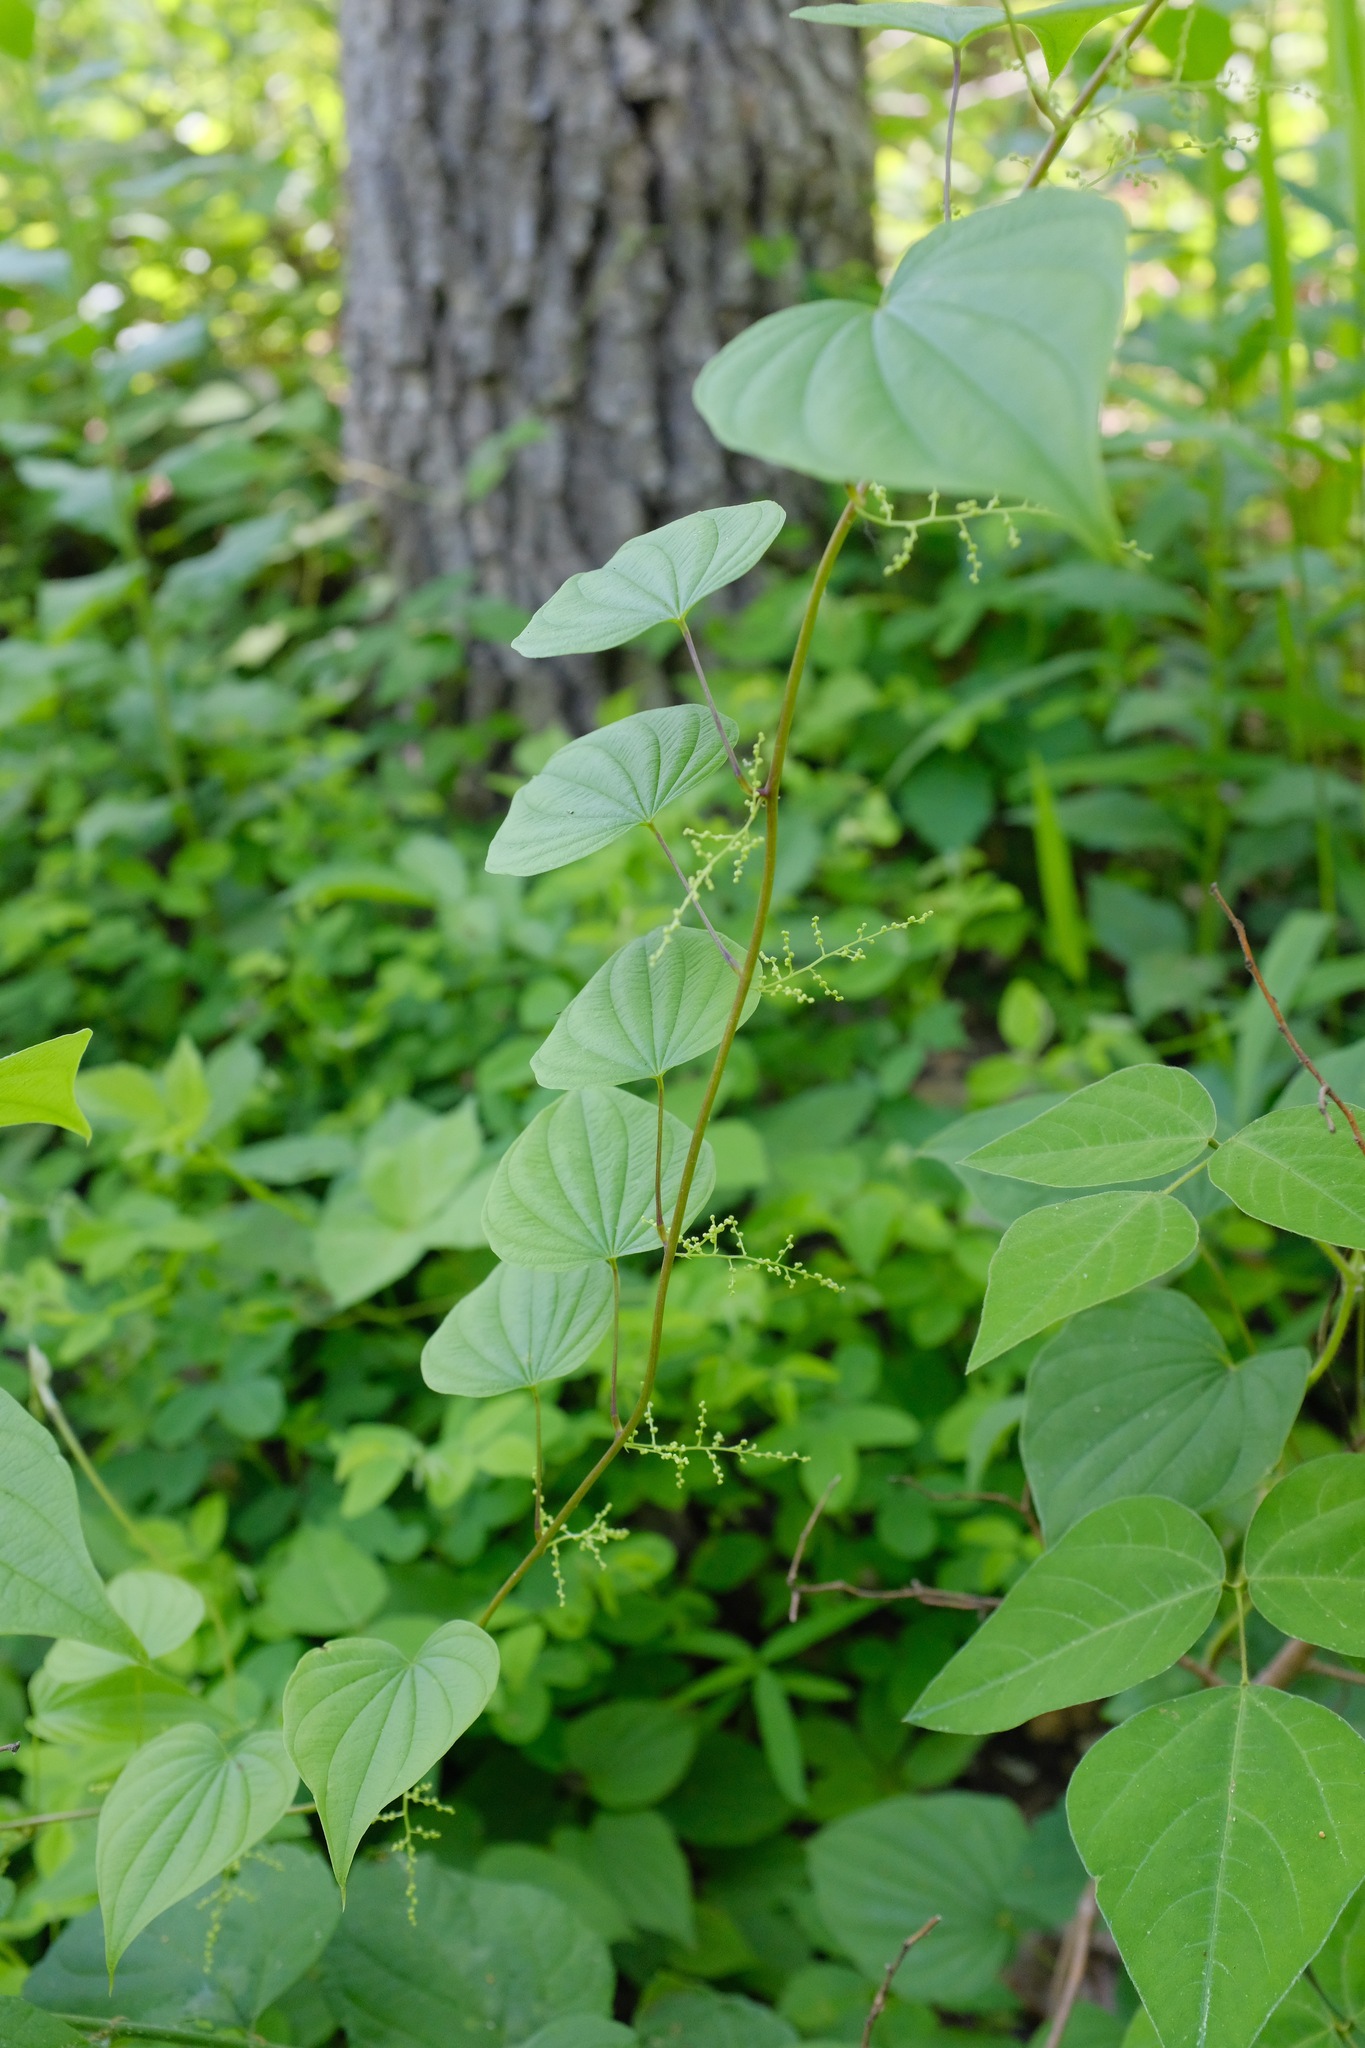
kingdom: Plantae
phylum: Tracheophyta
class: Liliopsida
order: Dioscoreales
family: Dioscoreaceae
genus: Dioscorea
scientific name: Dioscorea villosa
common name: Wild yam
